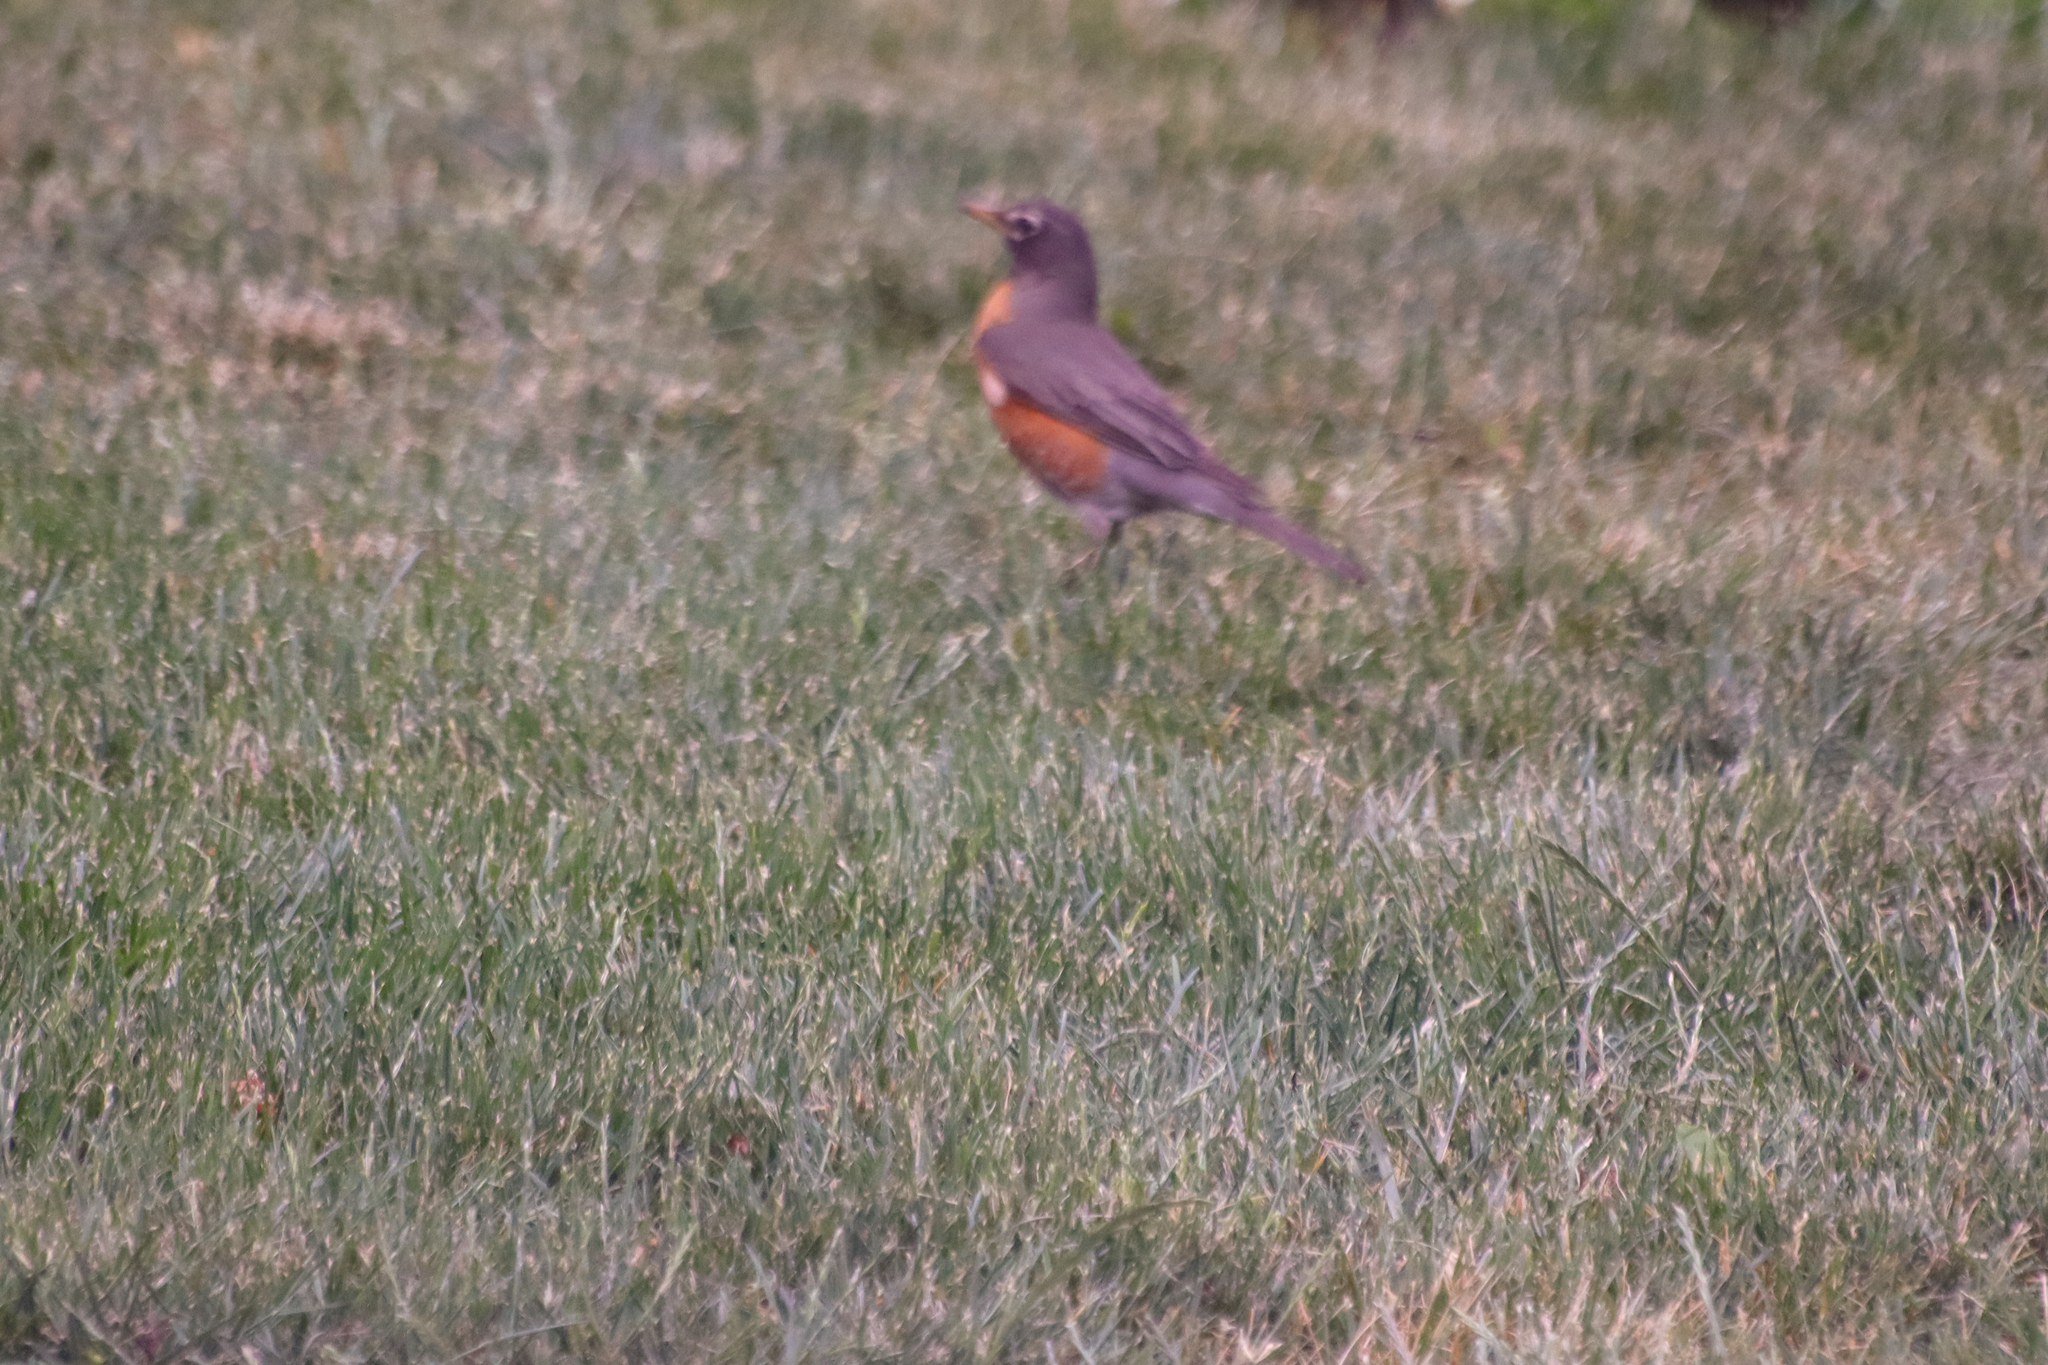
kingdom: Animalia
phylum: Chordata
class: Aves
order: Passeriformes
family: Turdidae
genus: Turdus
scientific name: Turdus migratorius
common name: American robin
